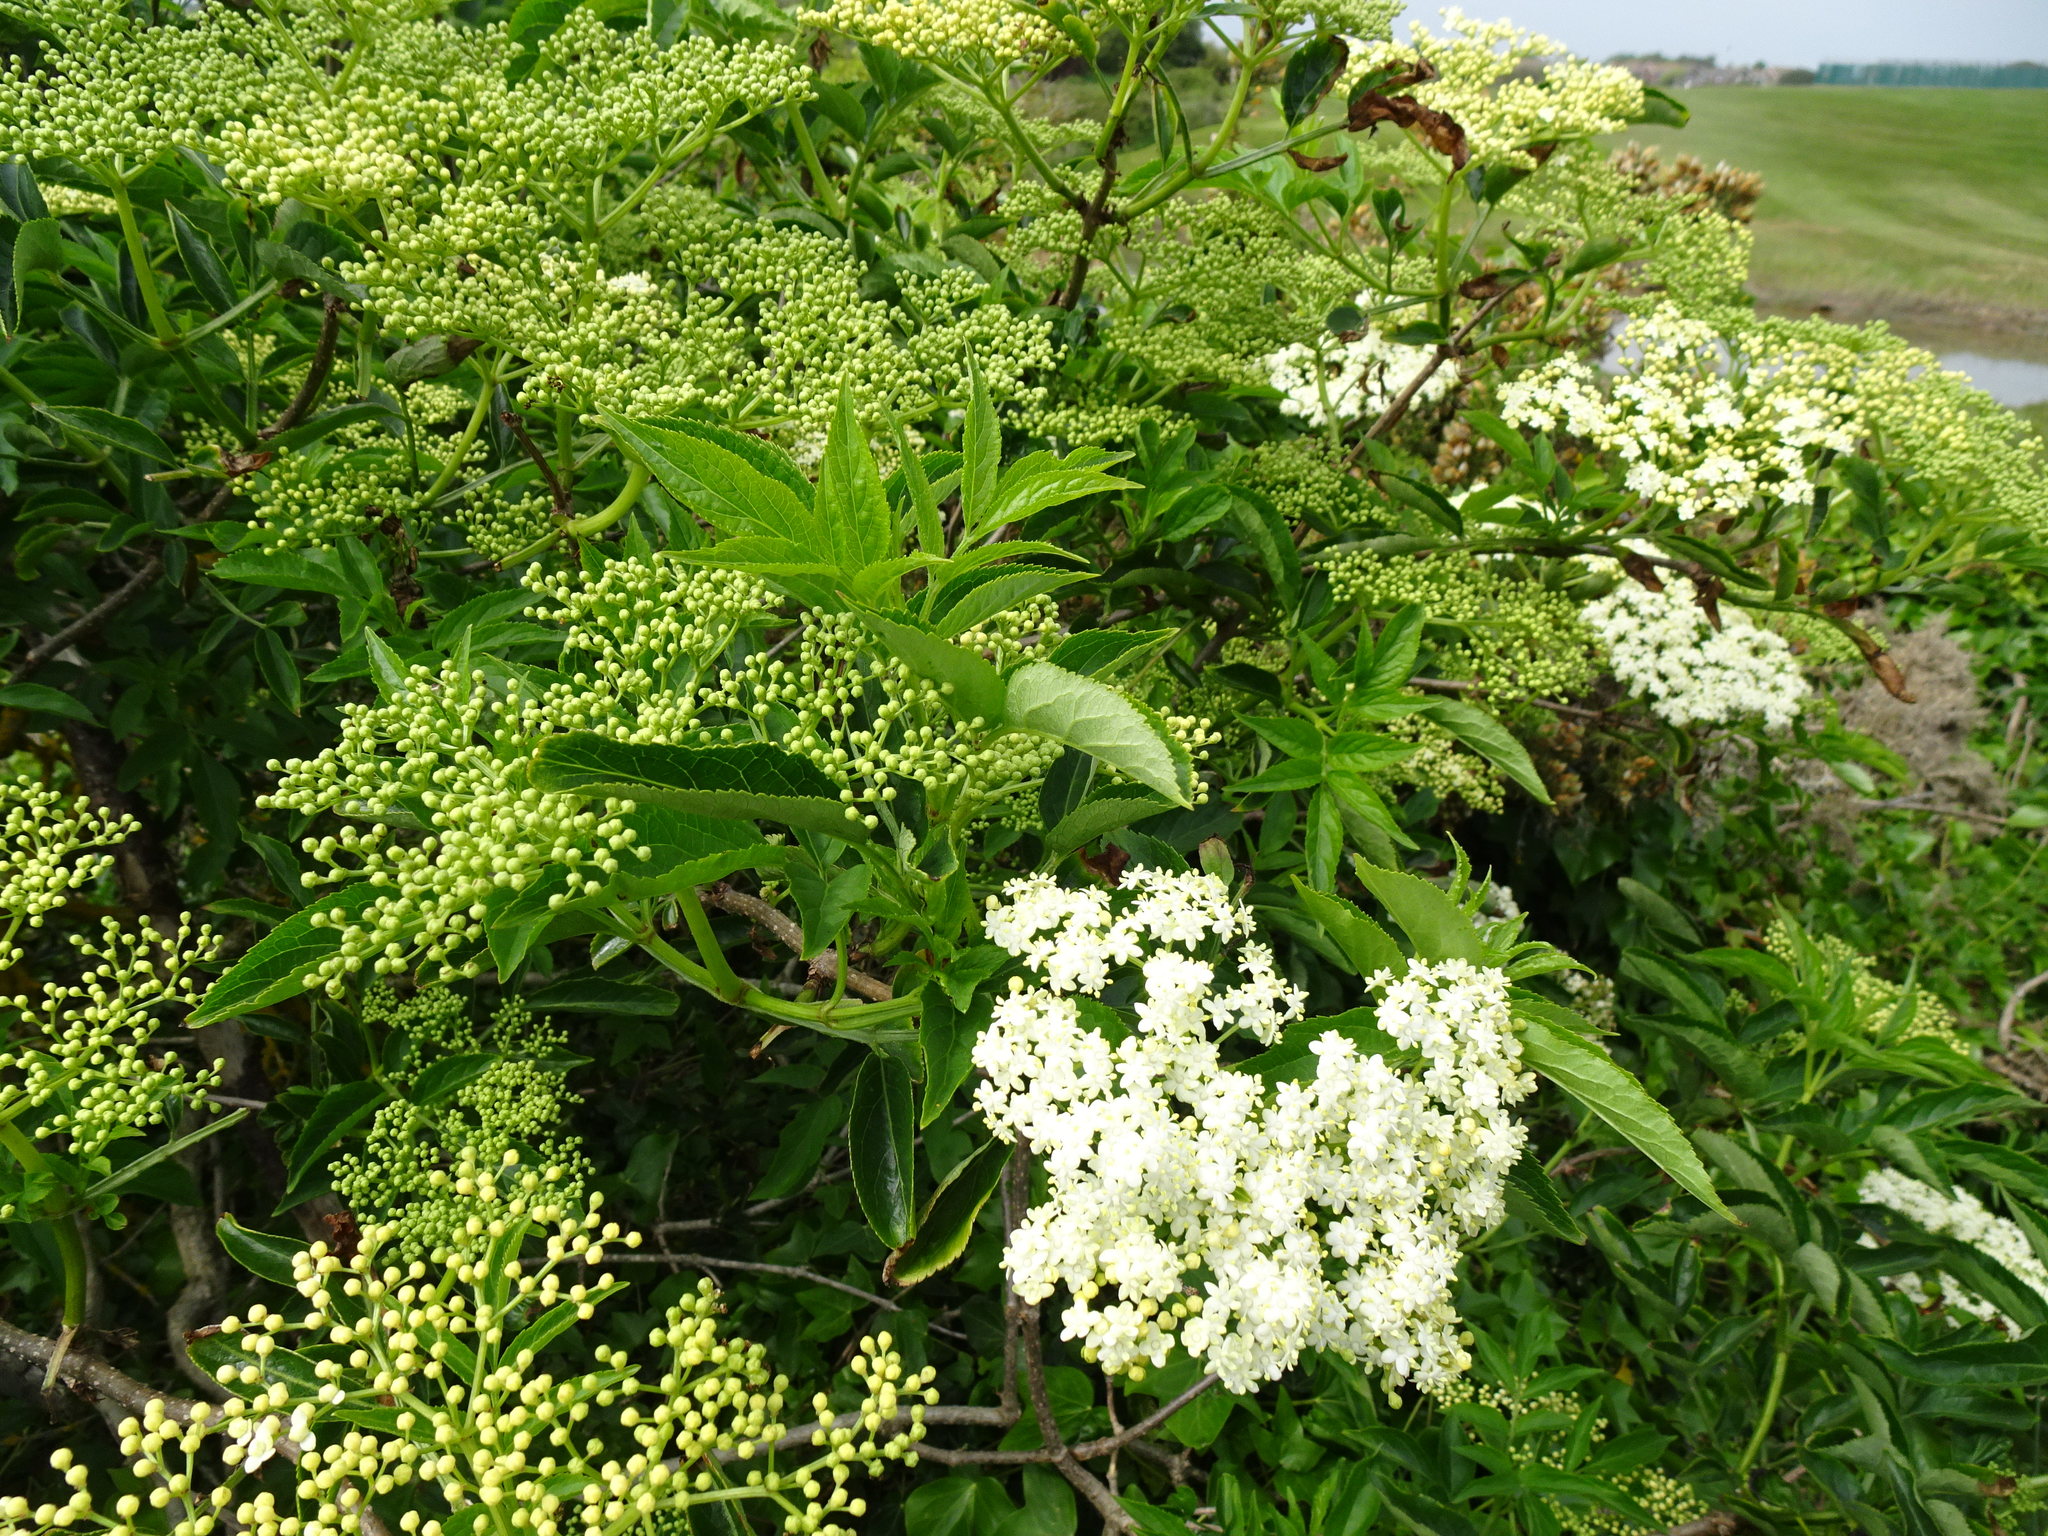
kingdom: Plantae
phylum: Tracheophyta
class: Magnoliopsida
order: Dipsacales
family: Viburnaceae
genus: Sambucus
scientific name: Sambucus nigra
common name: Elder
